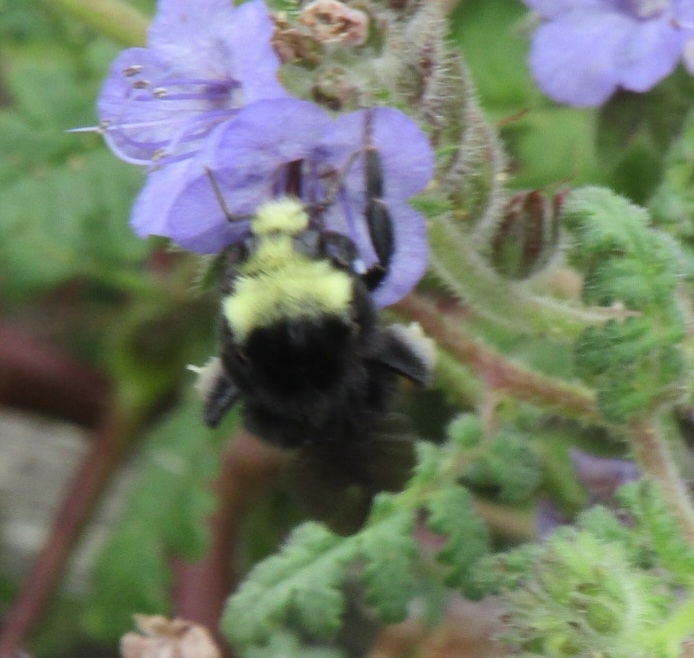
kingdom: Animalia
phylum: Arthropoda
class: Insecta
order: Hymenoptera
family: Apidae
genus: Bombus
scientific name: Bombus vosnesenskii
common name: Vosnesensky bumble bee
